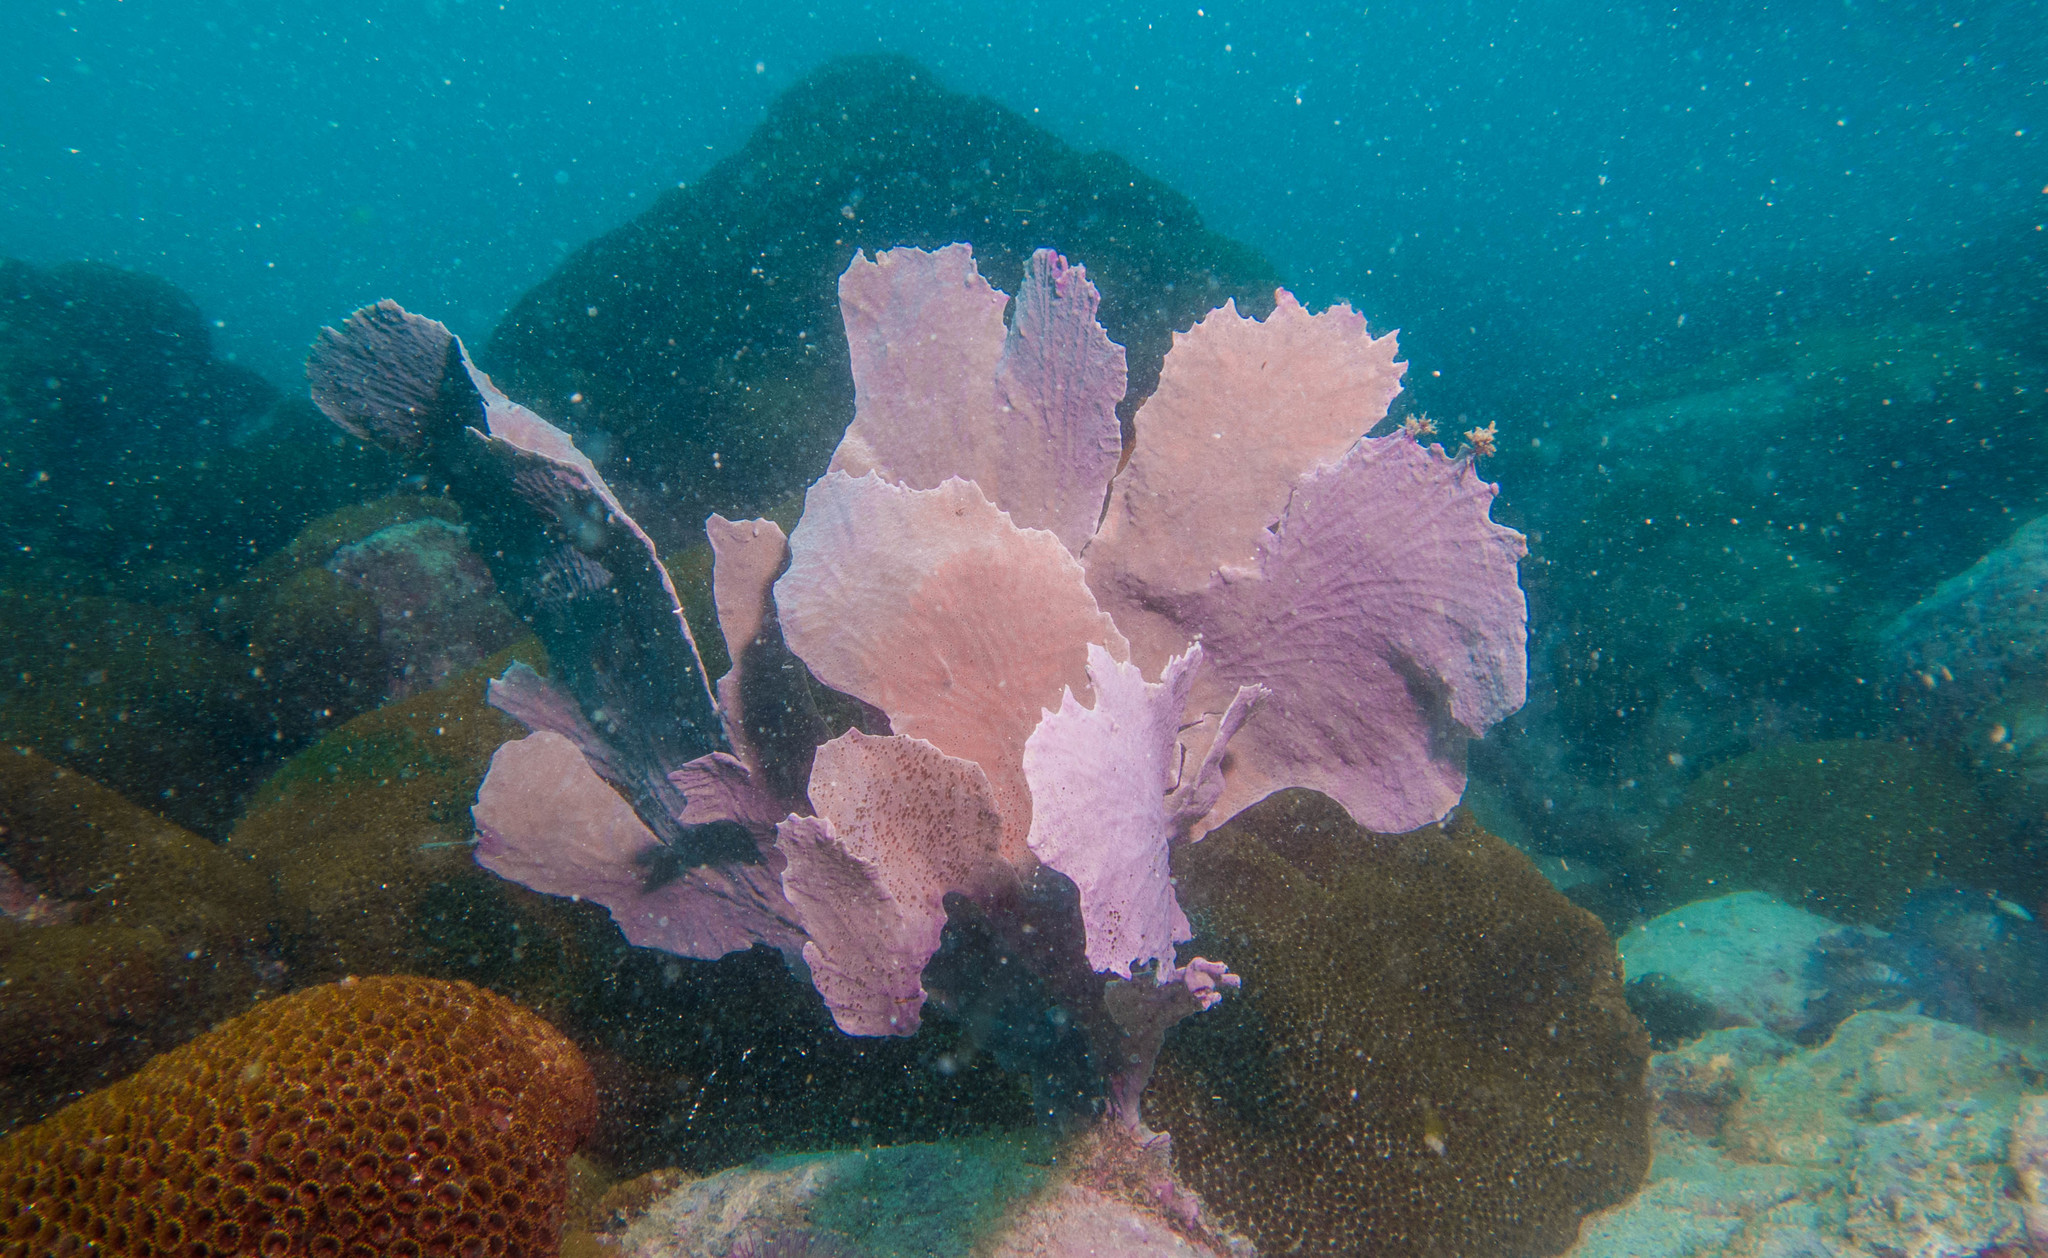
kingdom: Animalia
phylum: Cnidaria
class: Anthozoa
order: Malacalcyonacea
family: Gorgoniidae
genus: Phyllogorgia
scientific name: Phyllogorgia dilatata
